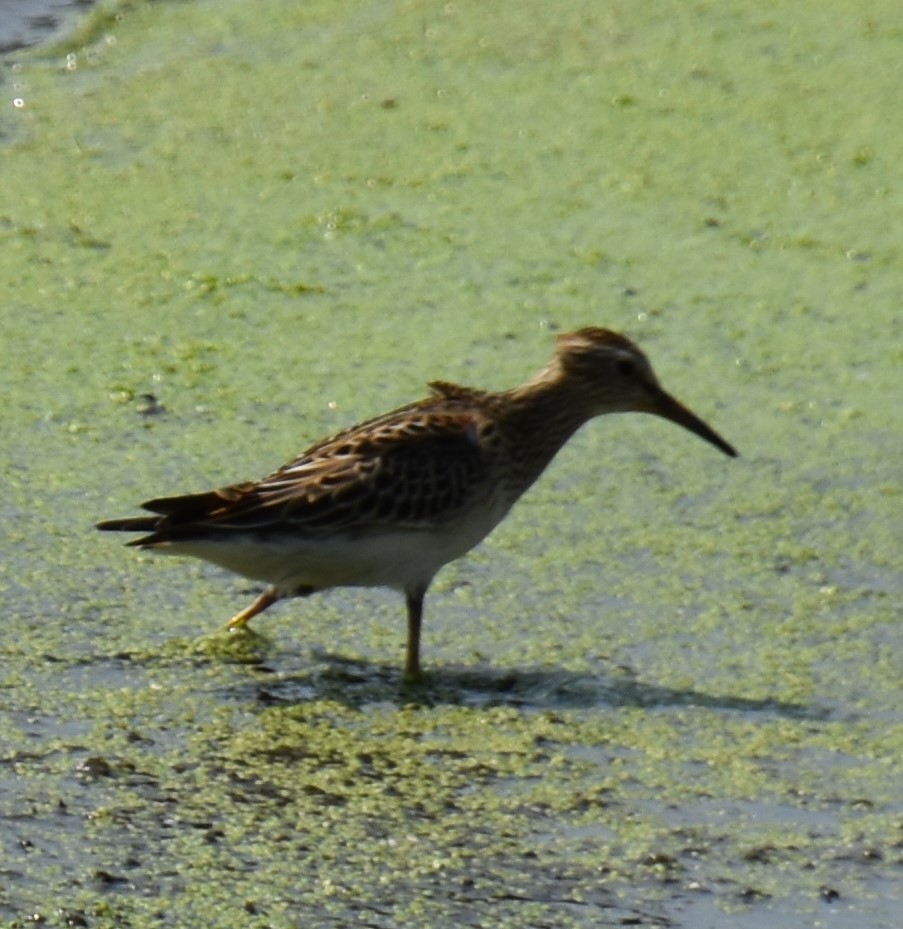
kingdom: Animalia
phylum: Chordata
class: Aves
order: Charadriiformes
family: Scolopacidae
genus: Calidris
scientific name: Calidris melanotos
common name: Pectoral sandpiper
